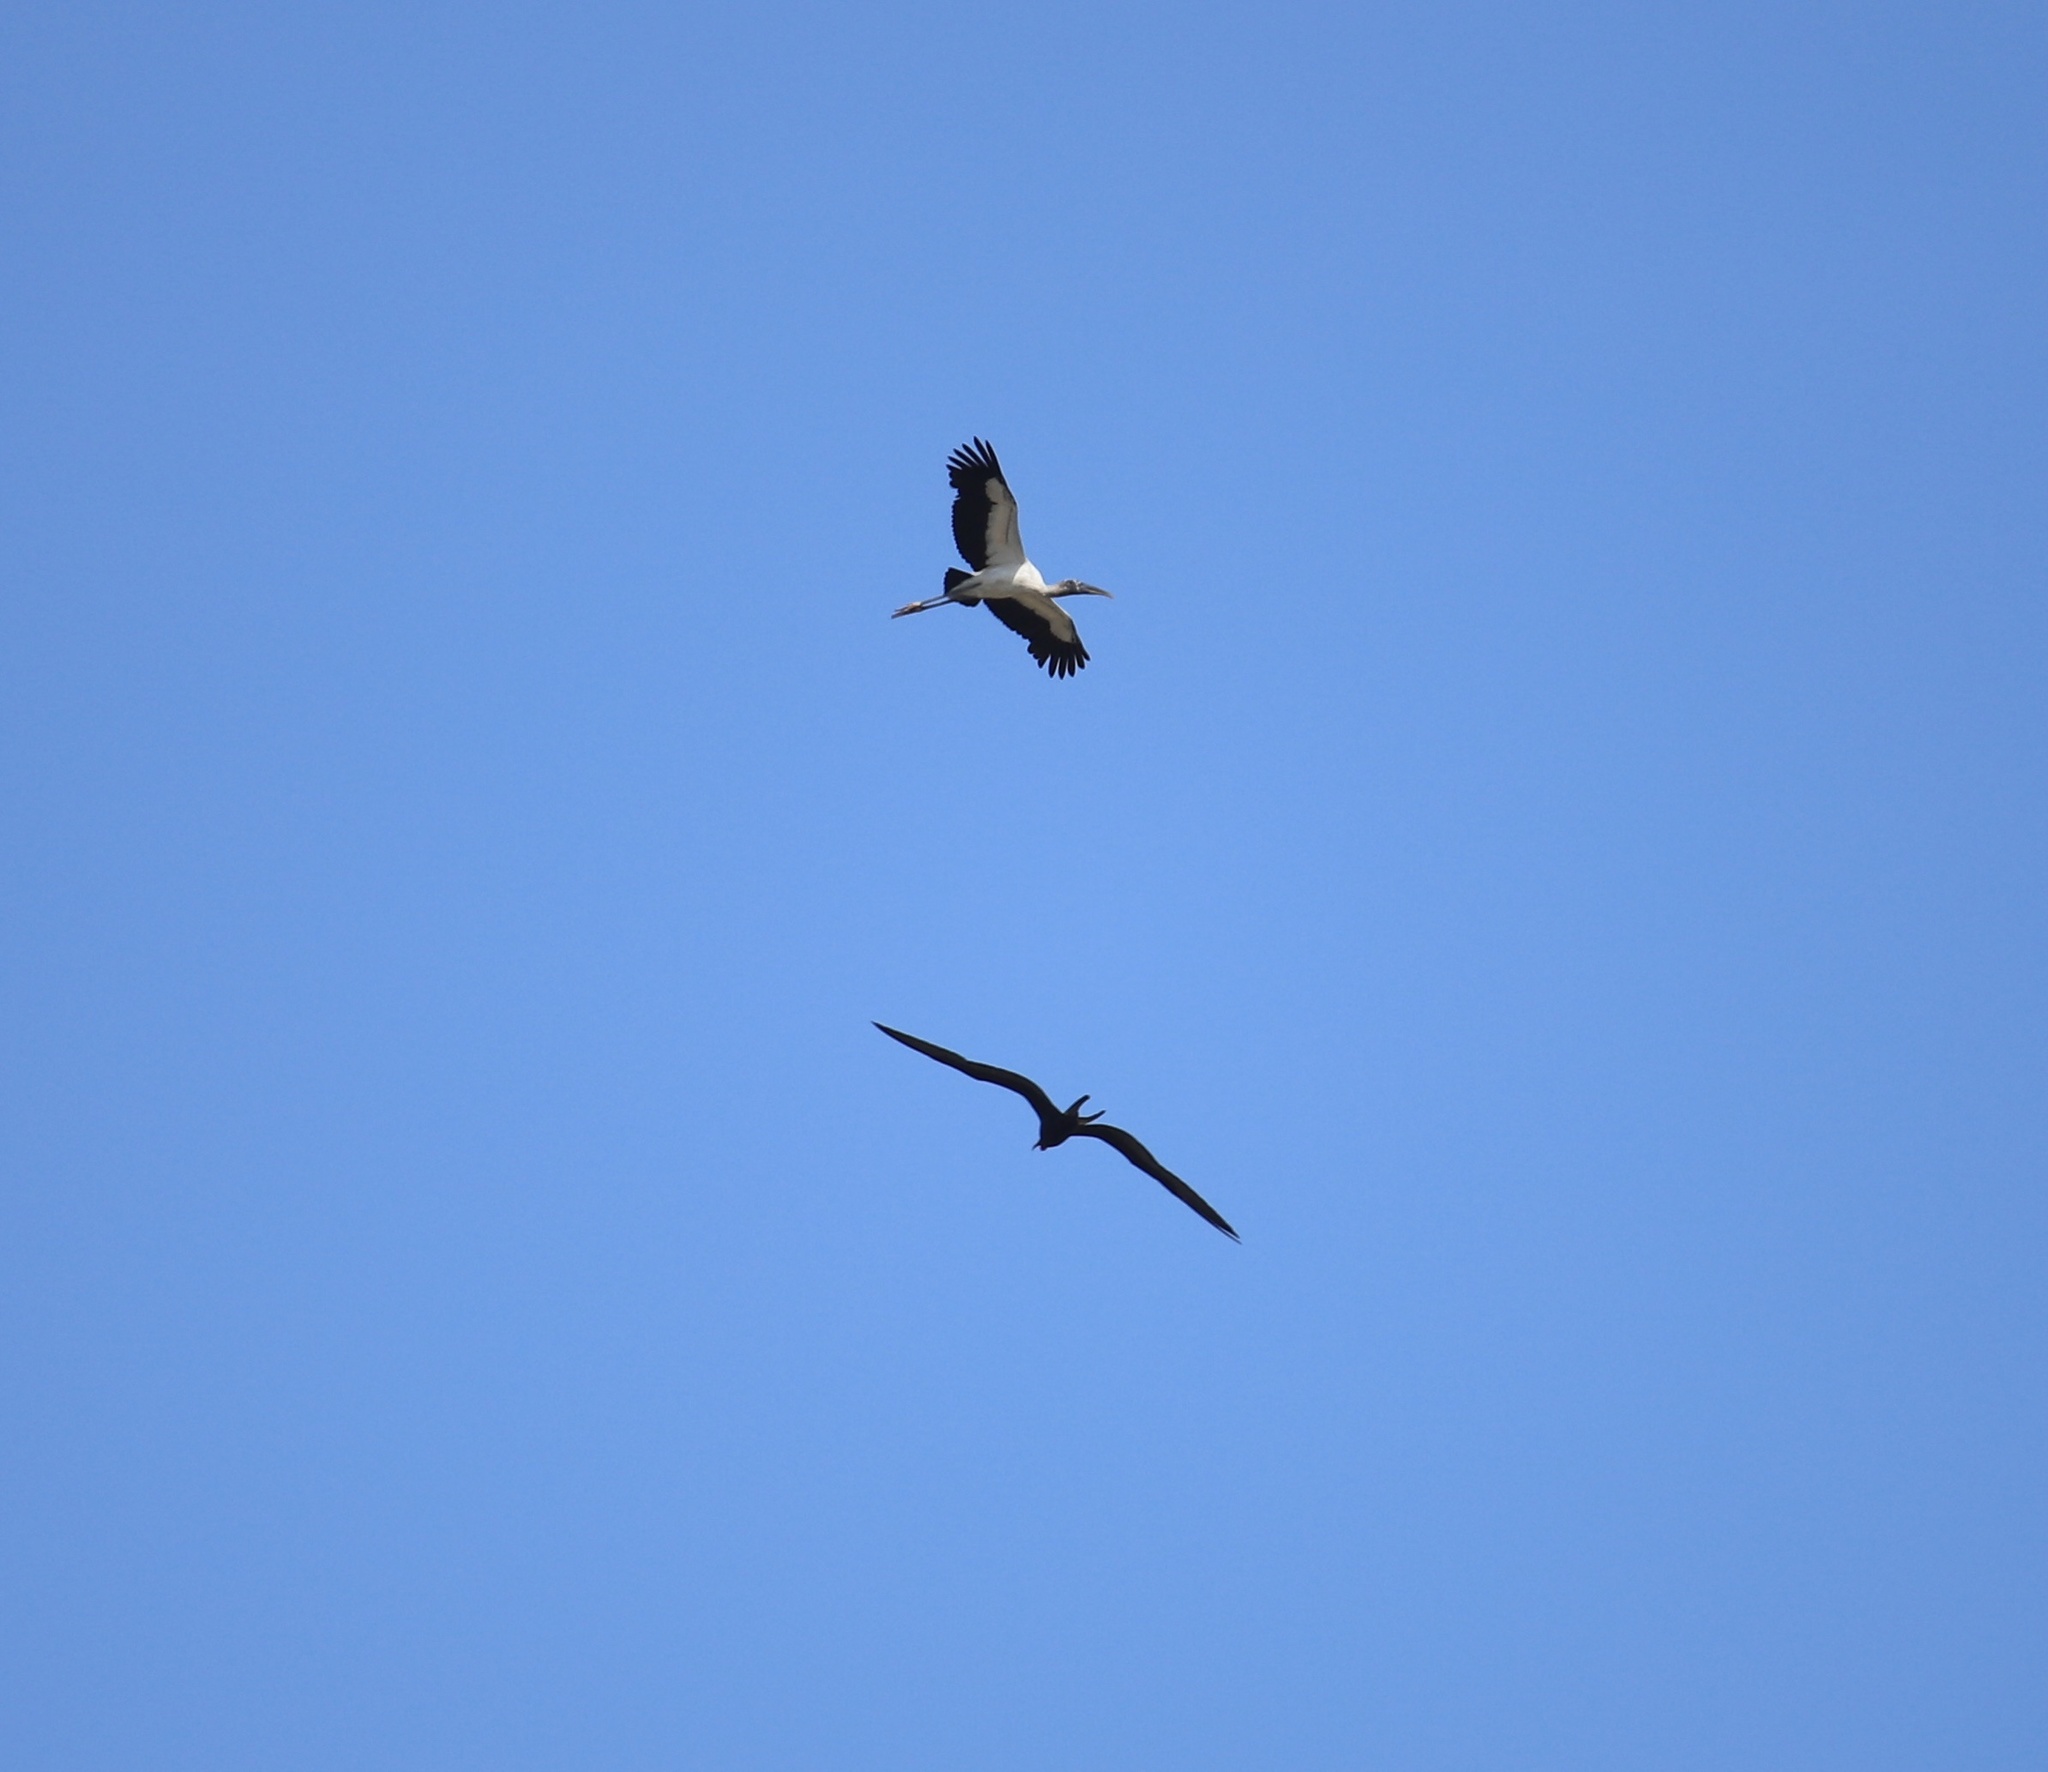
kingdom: Animalia
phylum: Chordata
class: Aves
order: Ciconiiformes
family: Ciconiidae
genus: Mycteria
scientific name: Mycteria americana
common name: Wood stork
